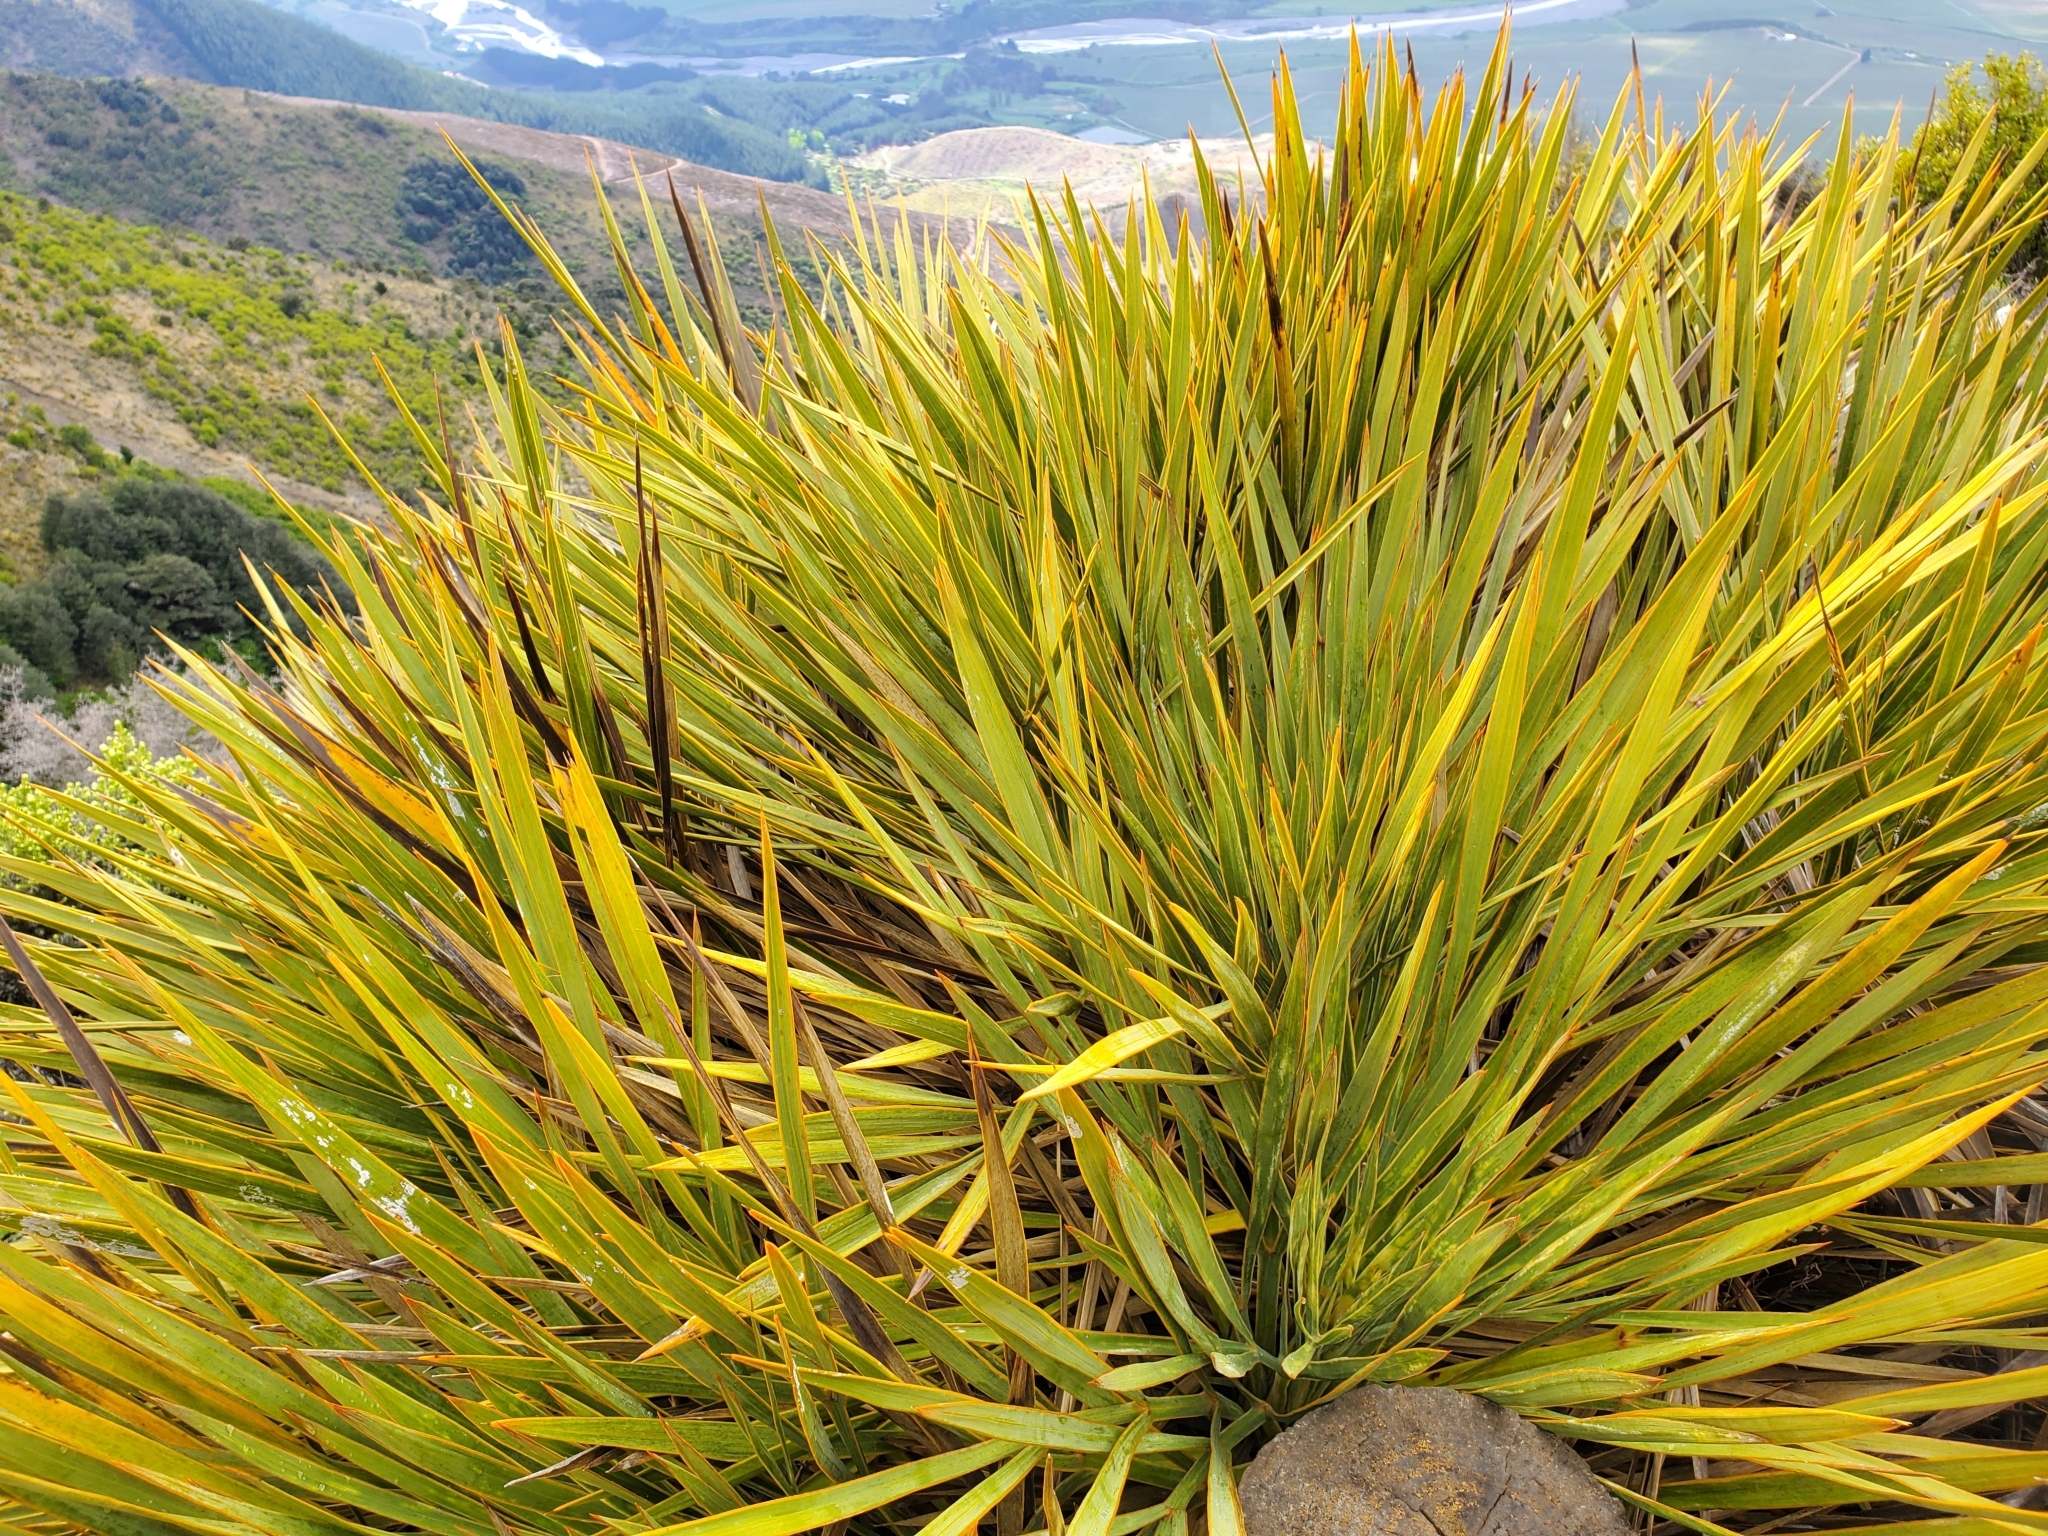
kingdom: Plantae
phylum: Tracheophyta
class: Magnoliopsida
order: Apiales
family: Apiaceae
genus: Aciphylla
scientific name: Aciphylla aurea
